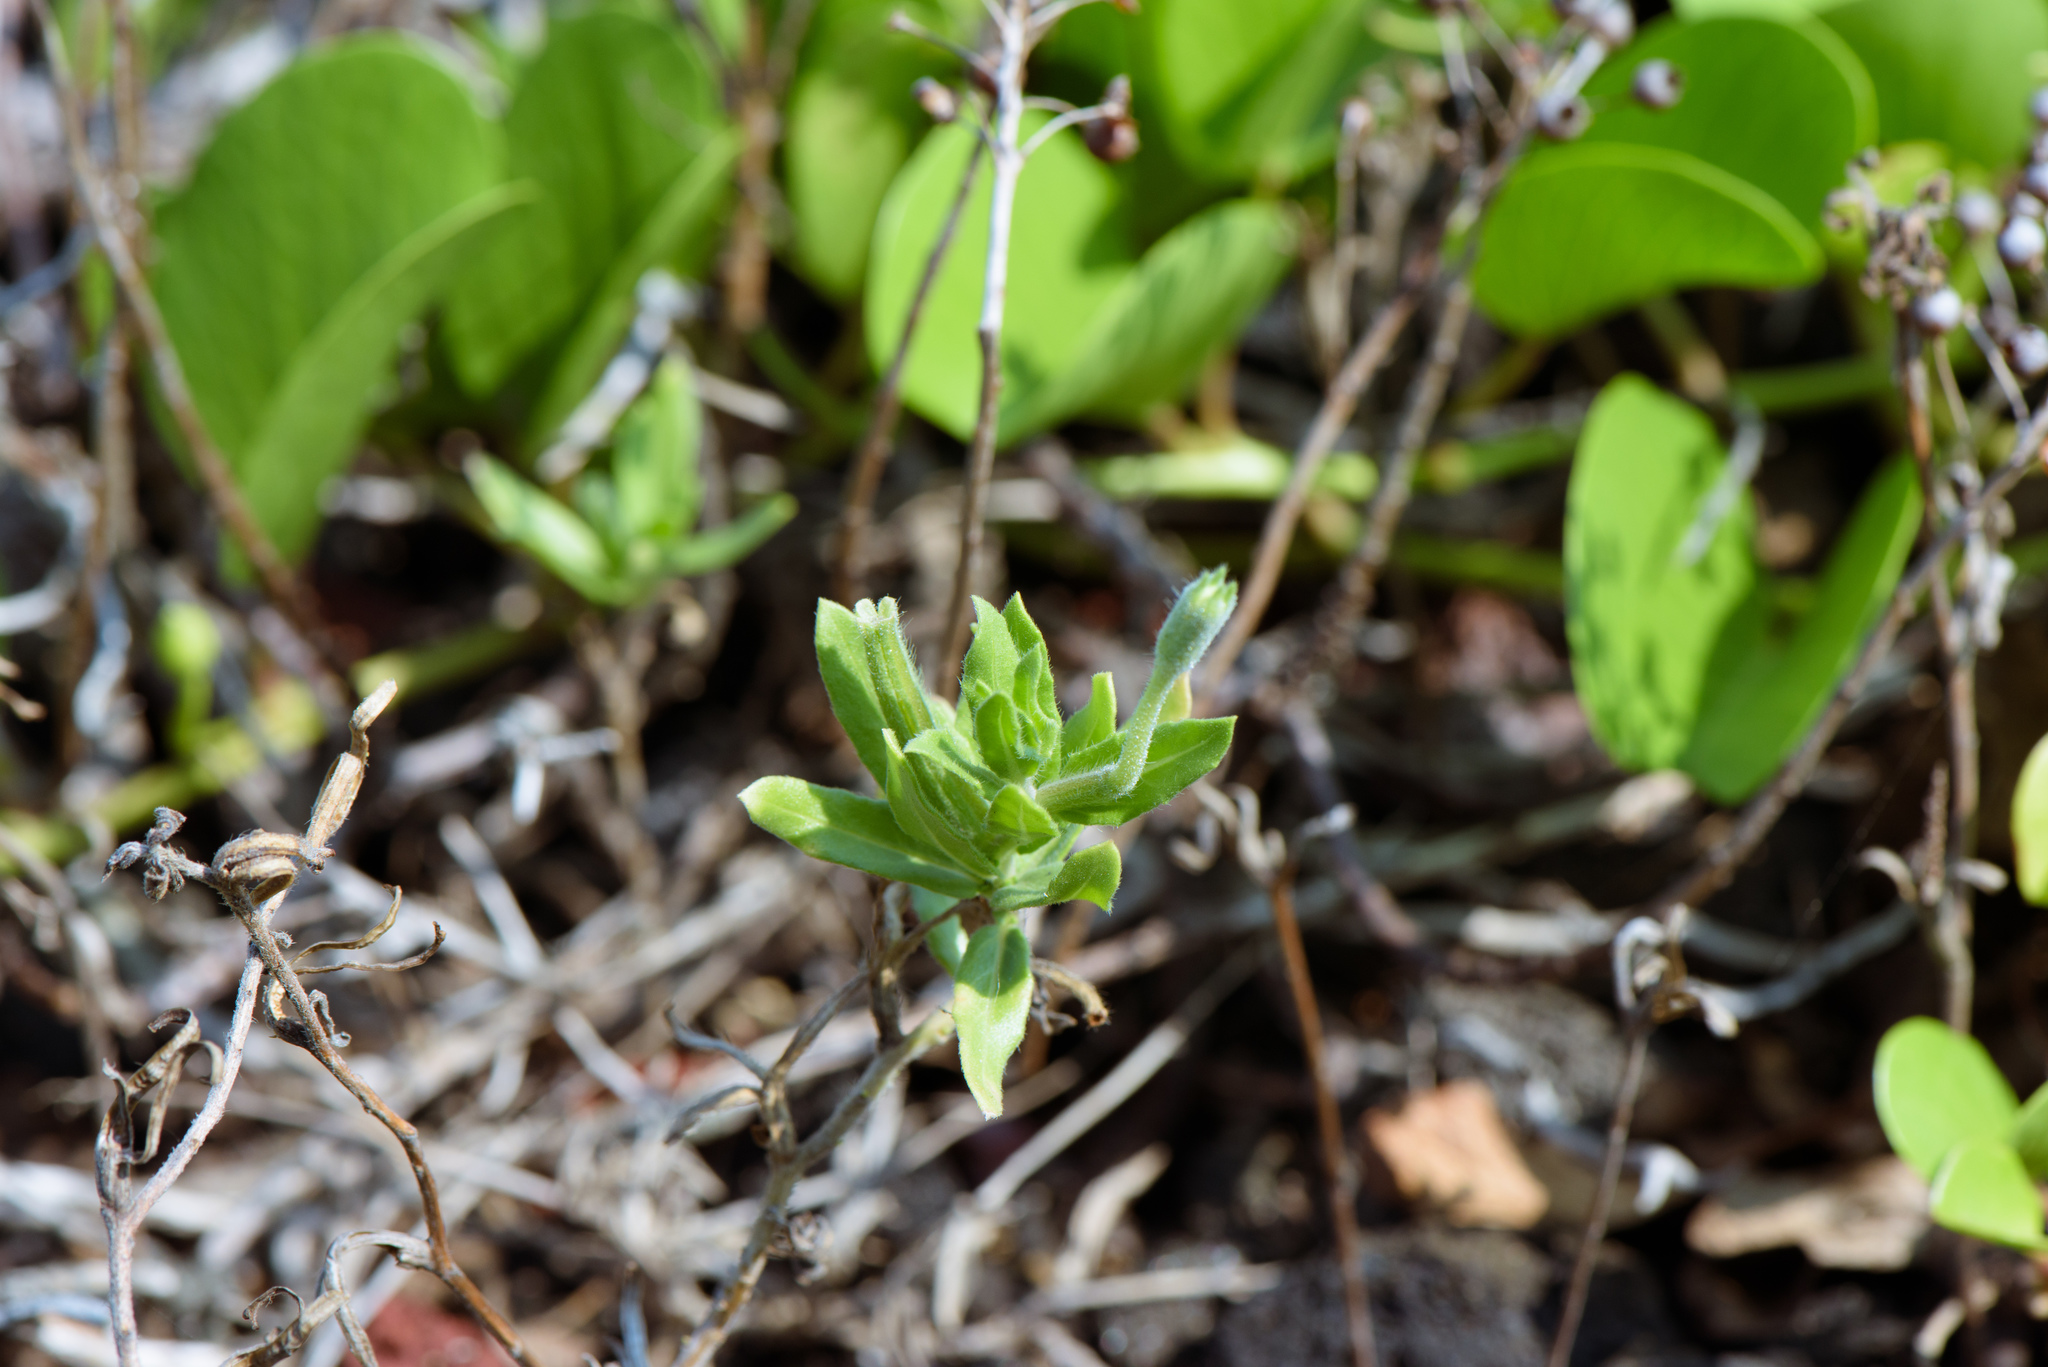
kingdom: Plantae
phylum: Tracheophyta
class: Magnoliopsida
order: Myrtales
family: Onagraceae
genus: Oenothera
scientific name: Oenothera laciniata
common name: Cut-leaved evening-primrose
